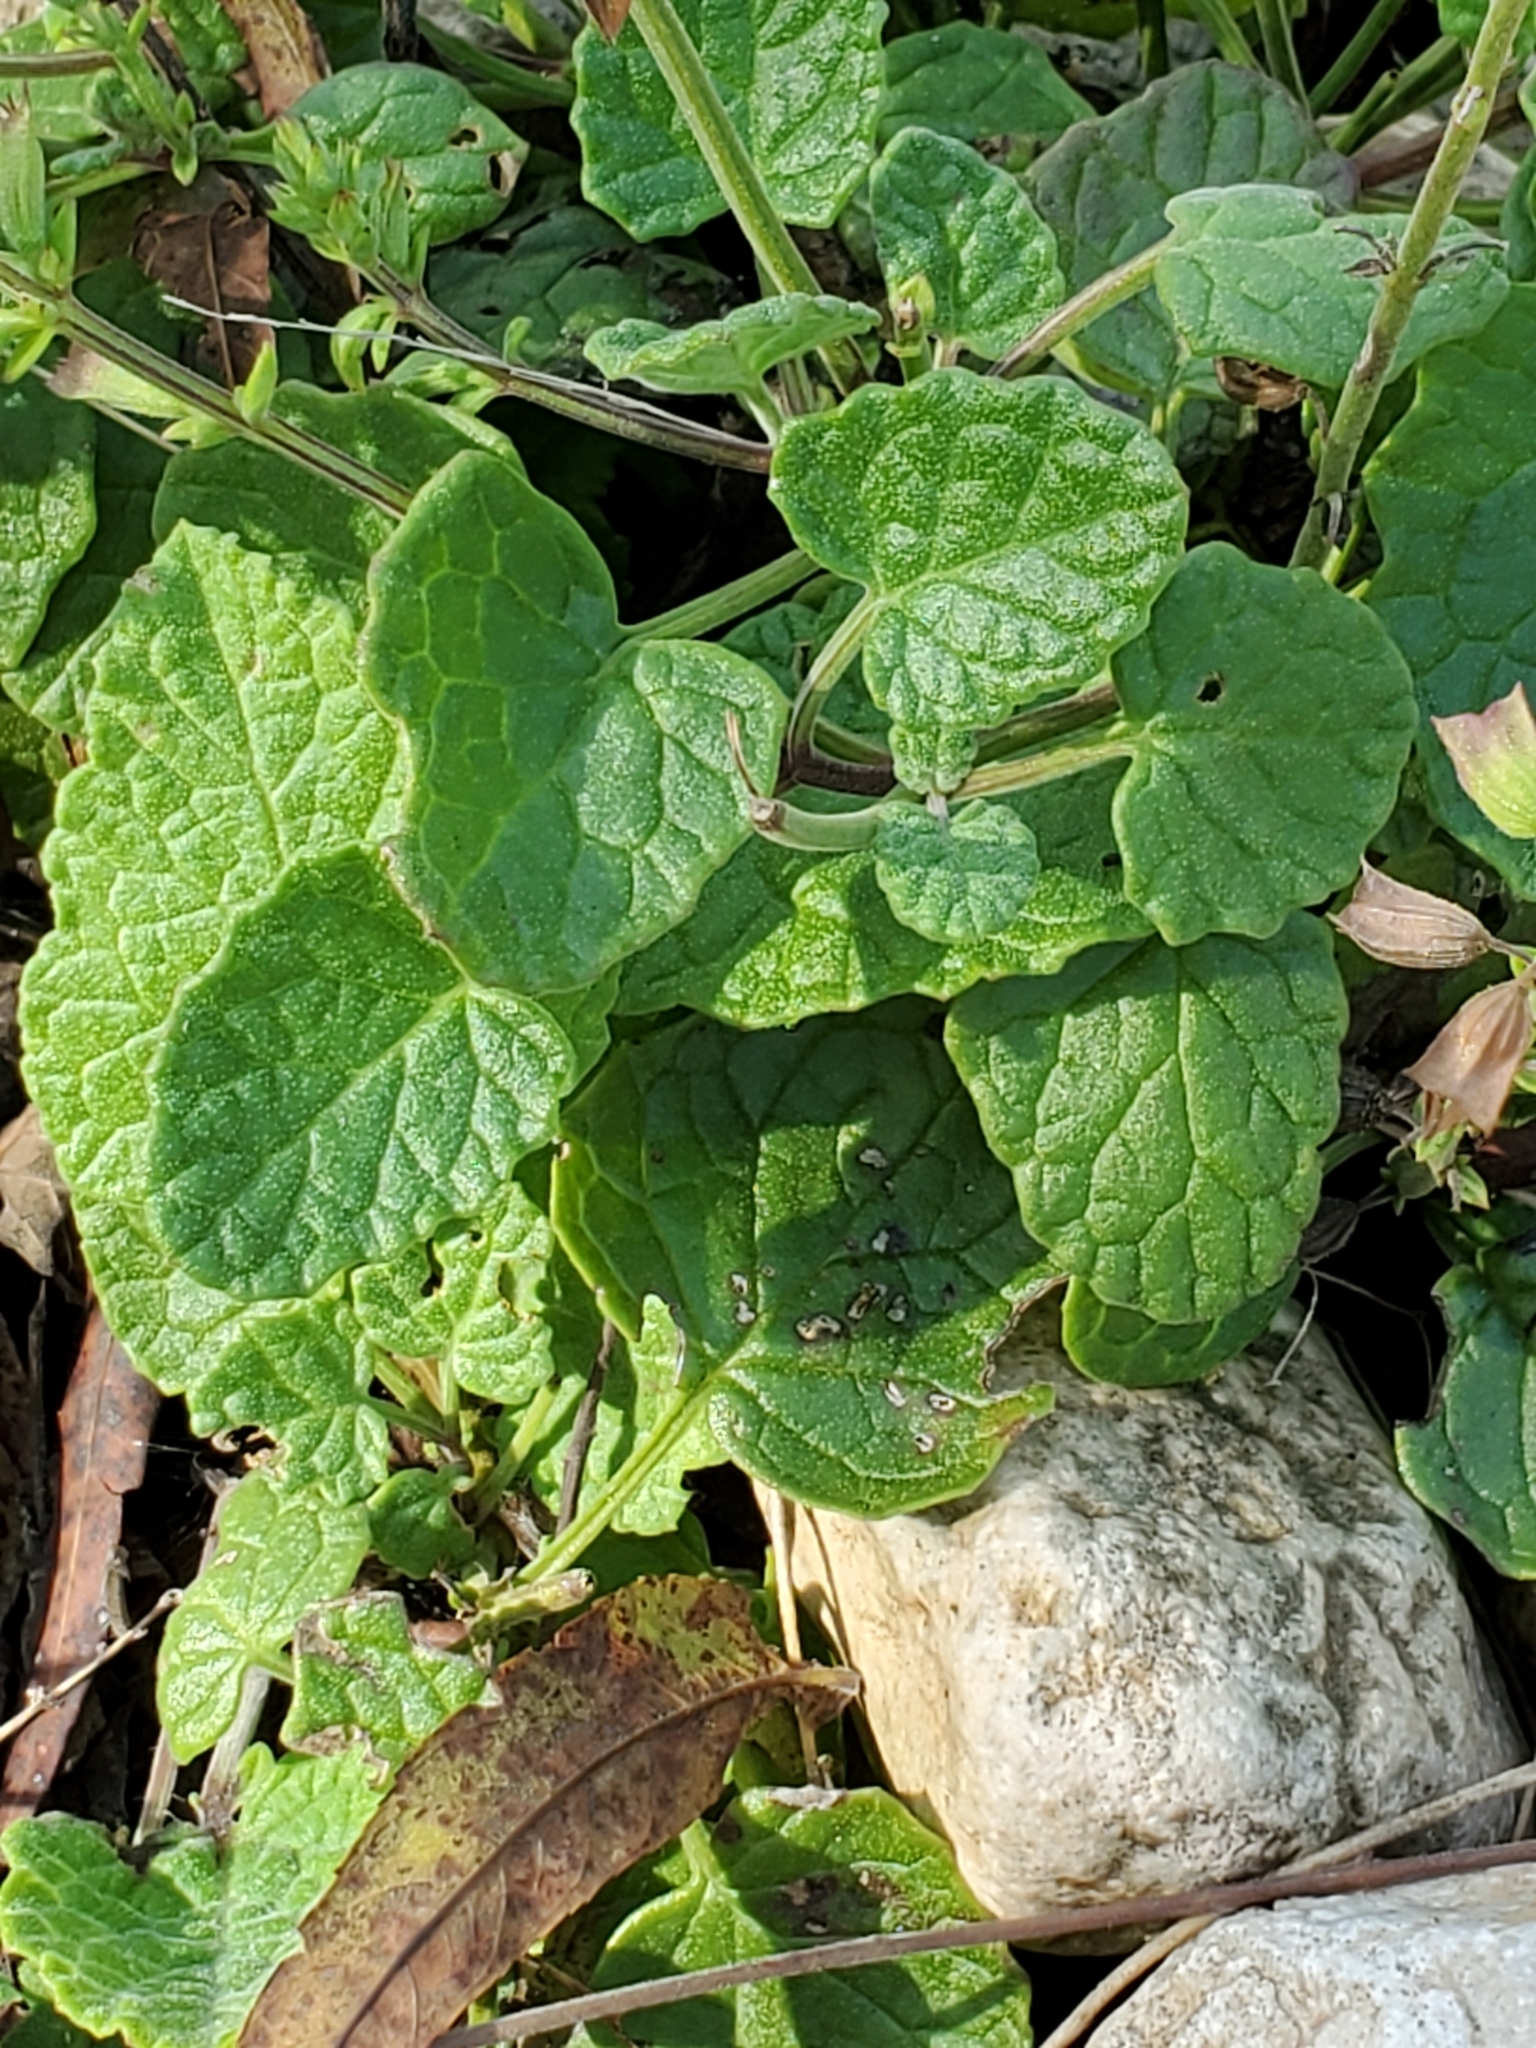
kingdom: Plantae
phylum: Tracheophyta
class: Magnoliopsida
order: Lamiales
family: Lamiaceae
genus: Salvia
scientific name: Salvia roemeriana
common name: Cedar sage
